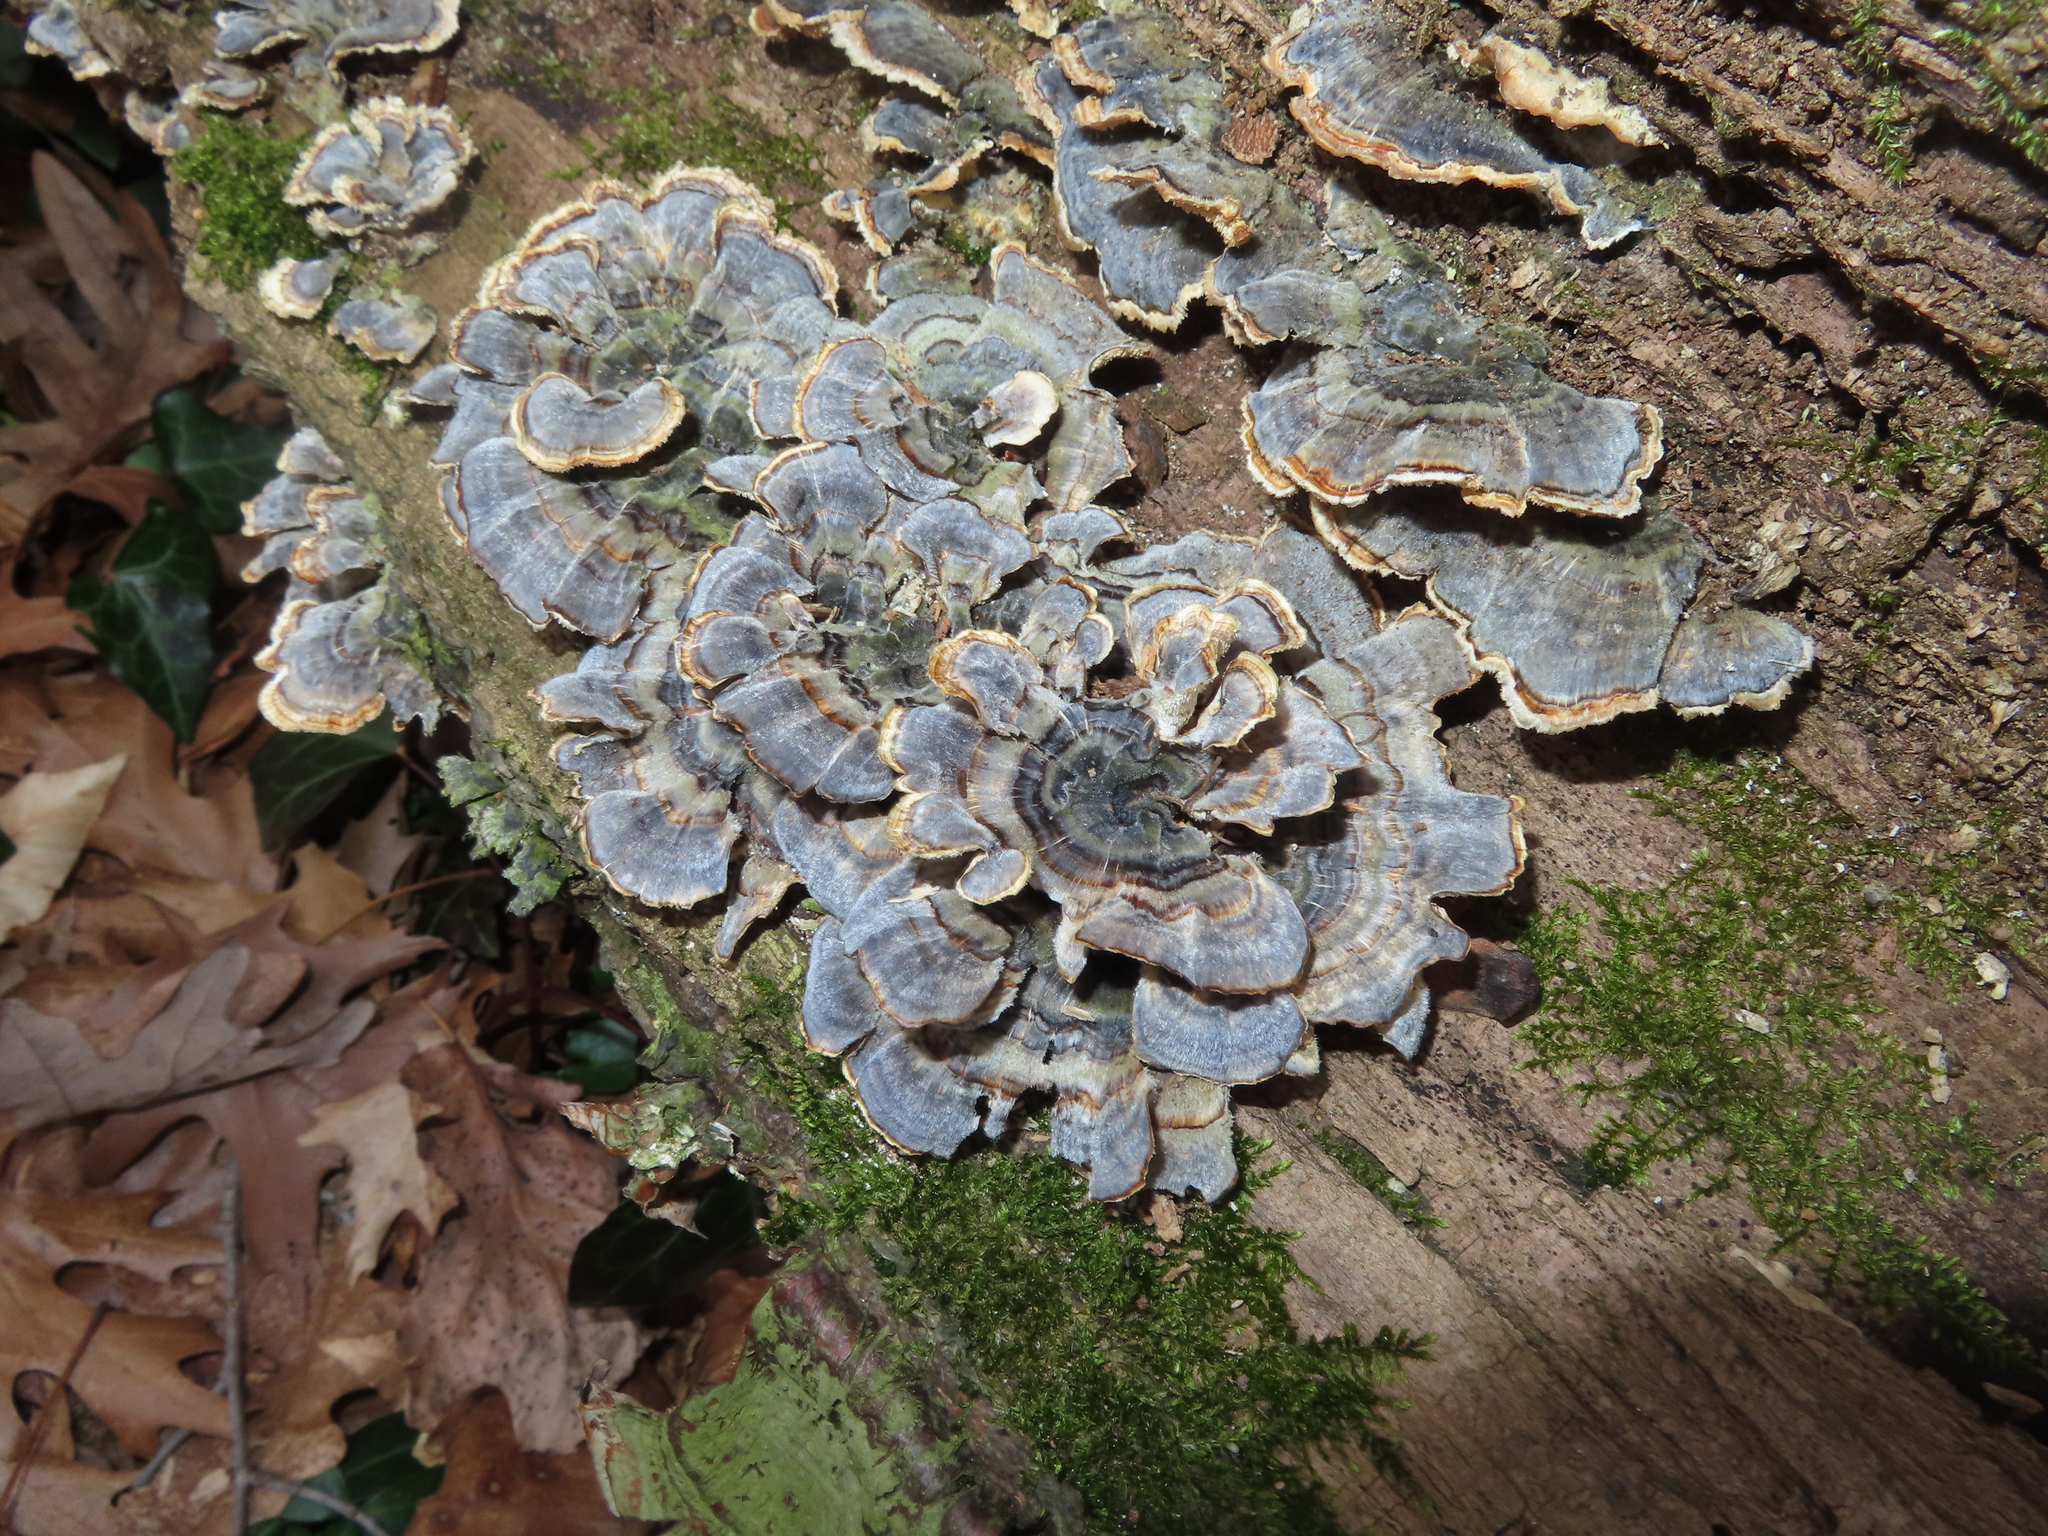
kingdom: Fungi
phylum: Basidiomycota
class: Agaricomycetes
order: Polyporales
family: Polyporaceae
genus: Trametes
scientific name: Trametes versicolor
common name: Turkeytail
